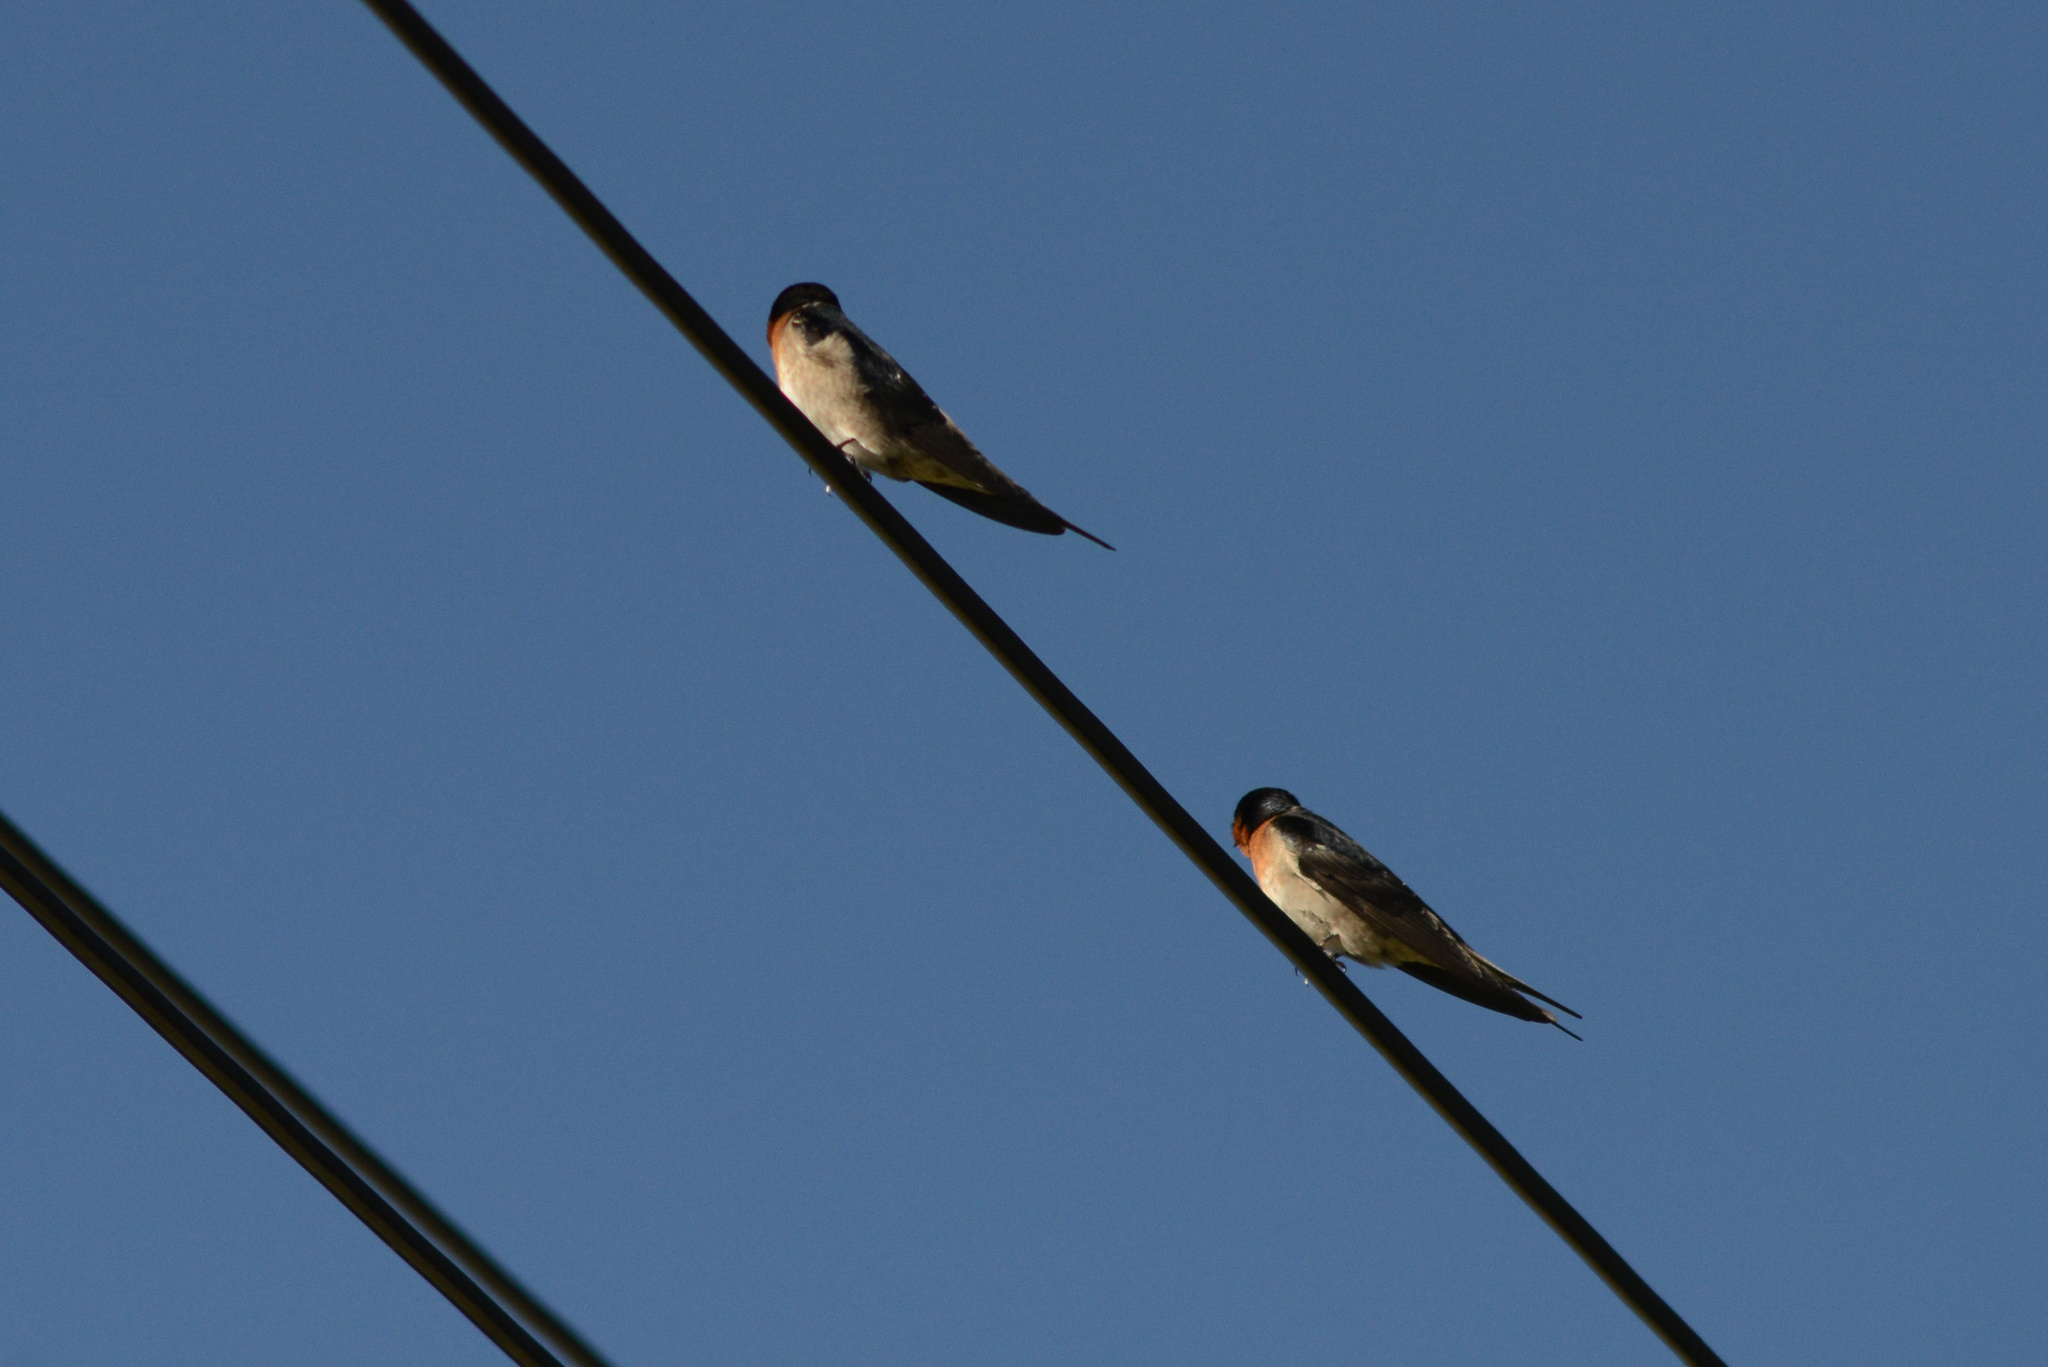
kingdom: Animalia
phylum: Chordata
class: Aves
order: Passeriformes
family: Hirundinidae
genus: Hirundo
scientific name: Hirundo neoxena
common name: Welcome swallow
